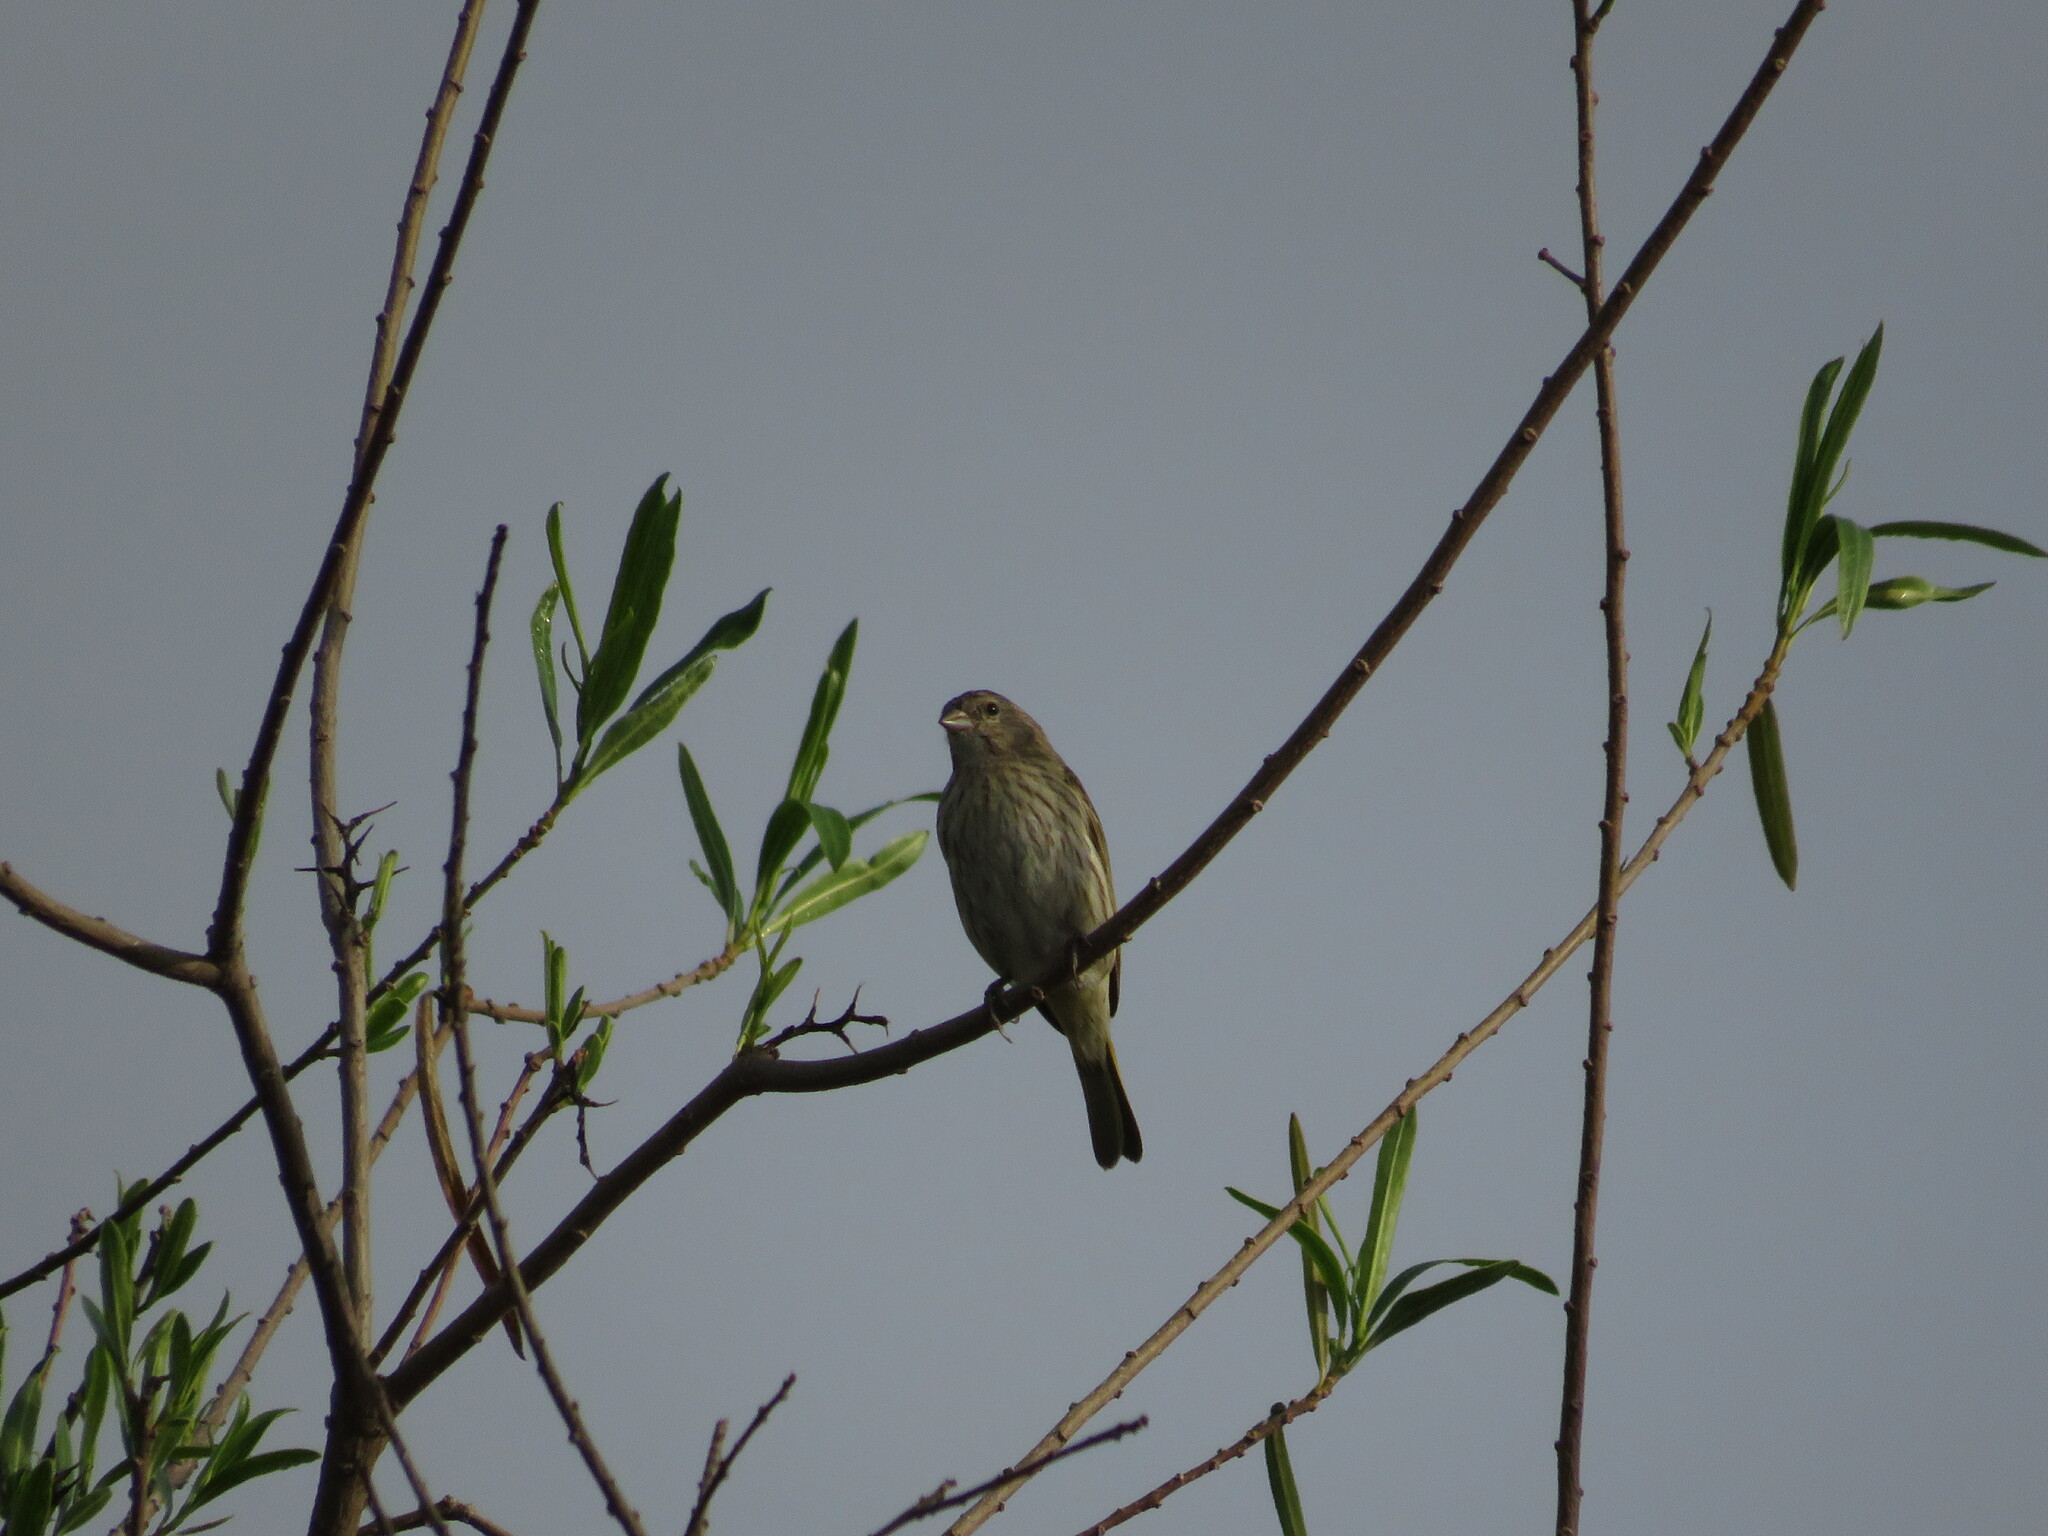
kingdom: Animalia
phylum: Chordata
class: Aves
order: Passeriformes
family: Thraupidae
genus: Sicalis
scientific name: Sicalis flaveola
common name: Saffron finch
